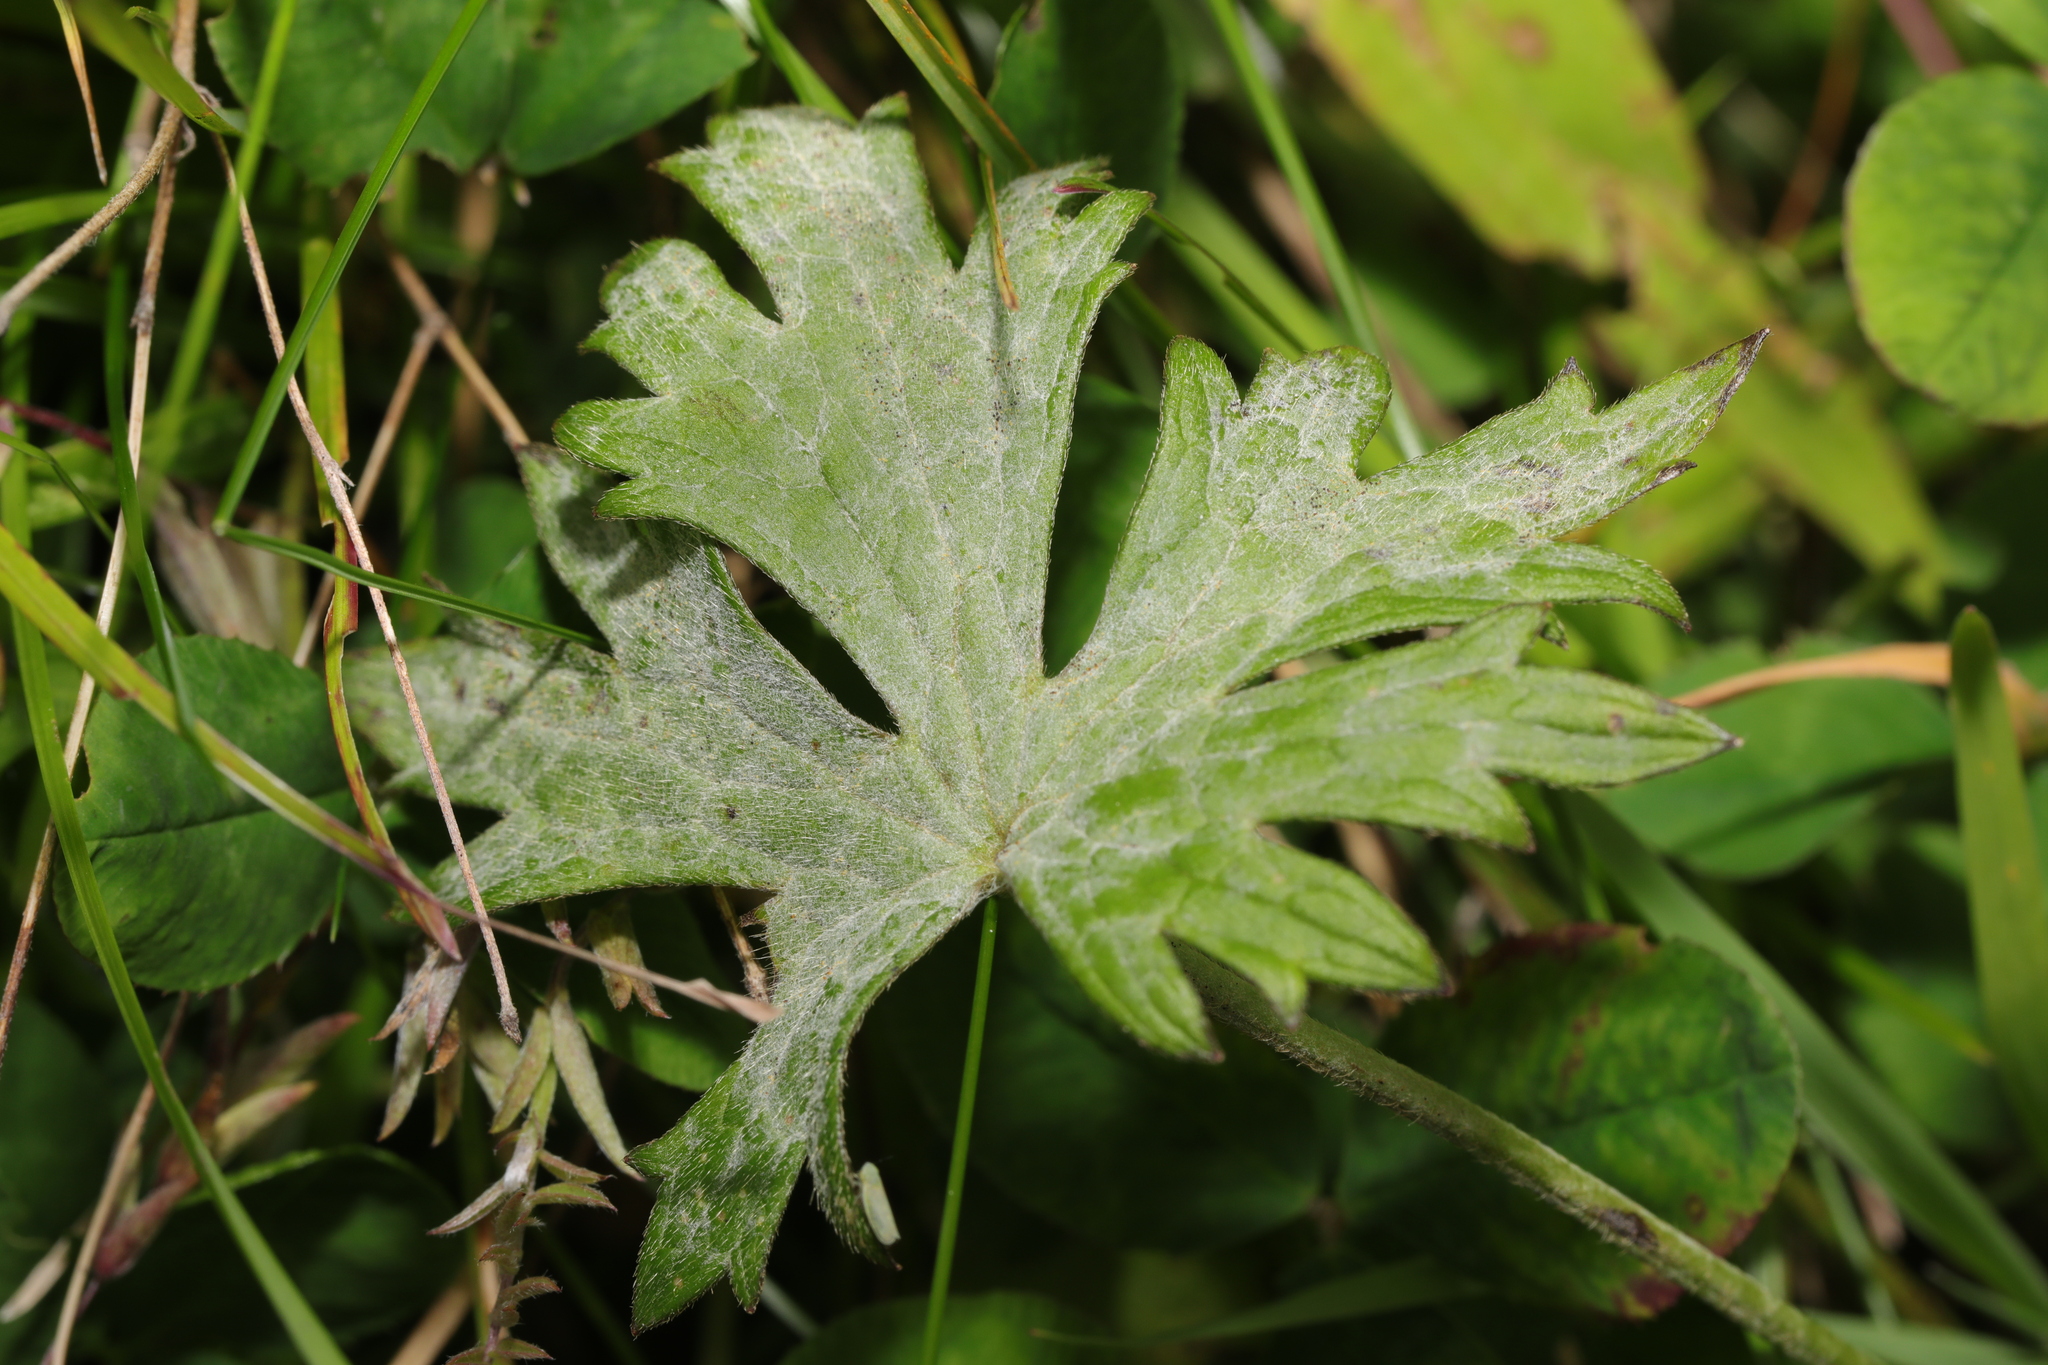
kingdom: Plantae
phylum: Tracheophyta
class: Magnoliopsida
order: Ranunculales
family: Ranunculaceae
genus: Ranunculus
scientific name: Ranunculus acris
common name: Meadow buttercup
